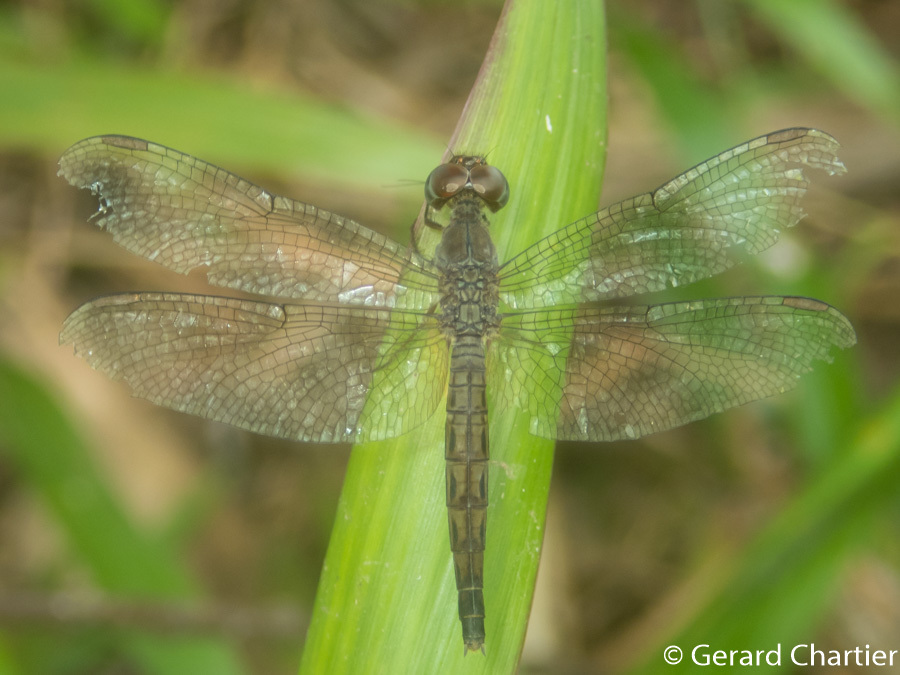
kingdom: Animalia
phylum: Arthropoda
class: Insecta
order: Odonata
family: Libellulidae
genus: Neurothemis
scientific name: Neurothemis fluctuans
